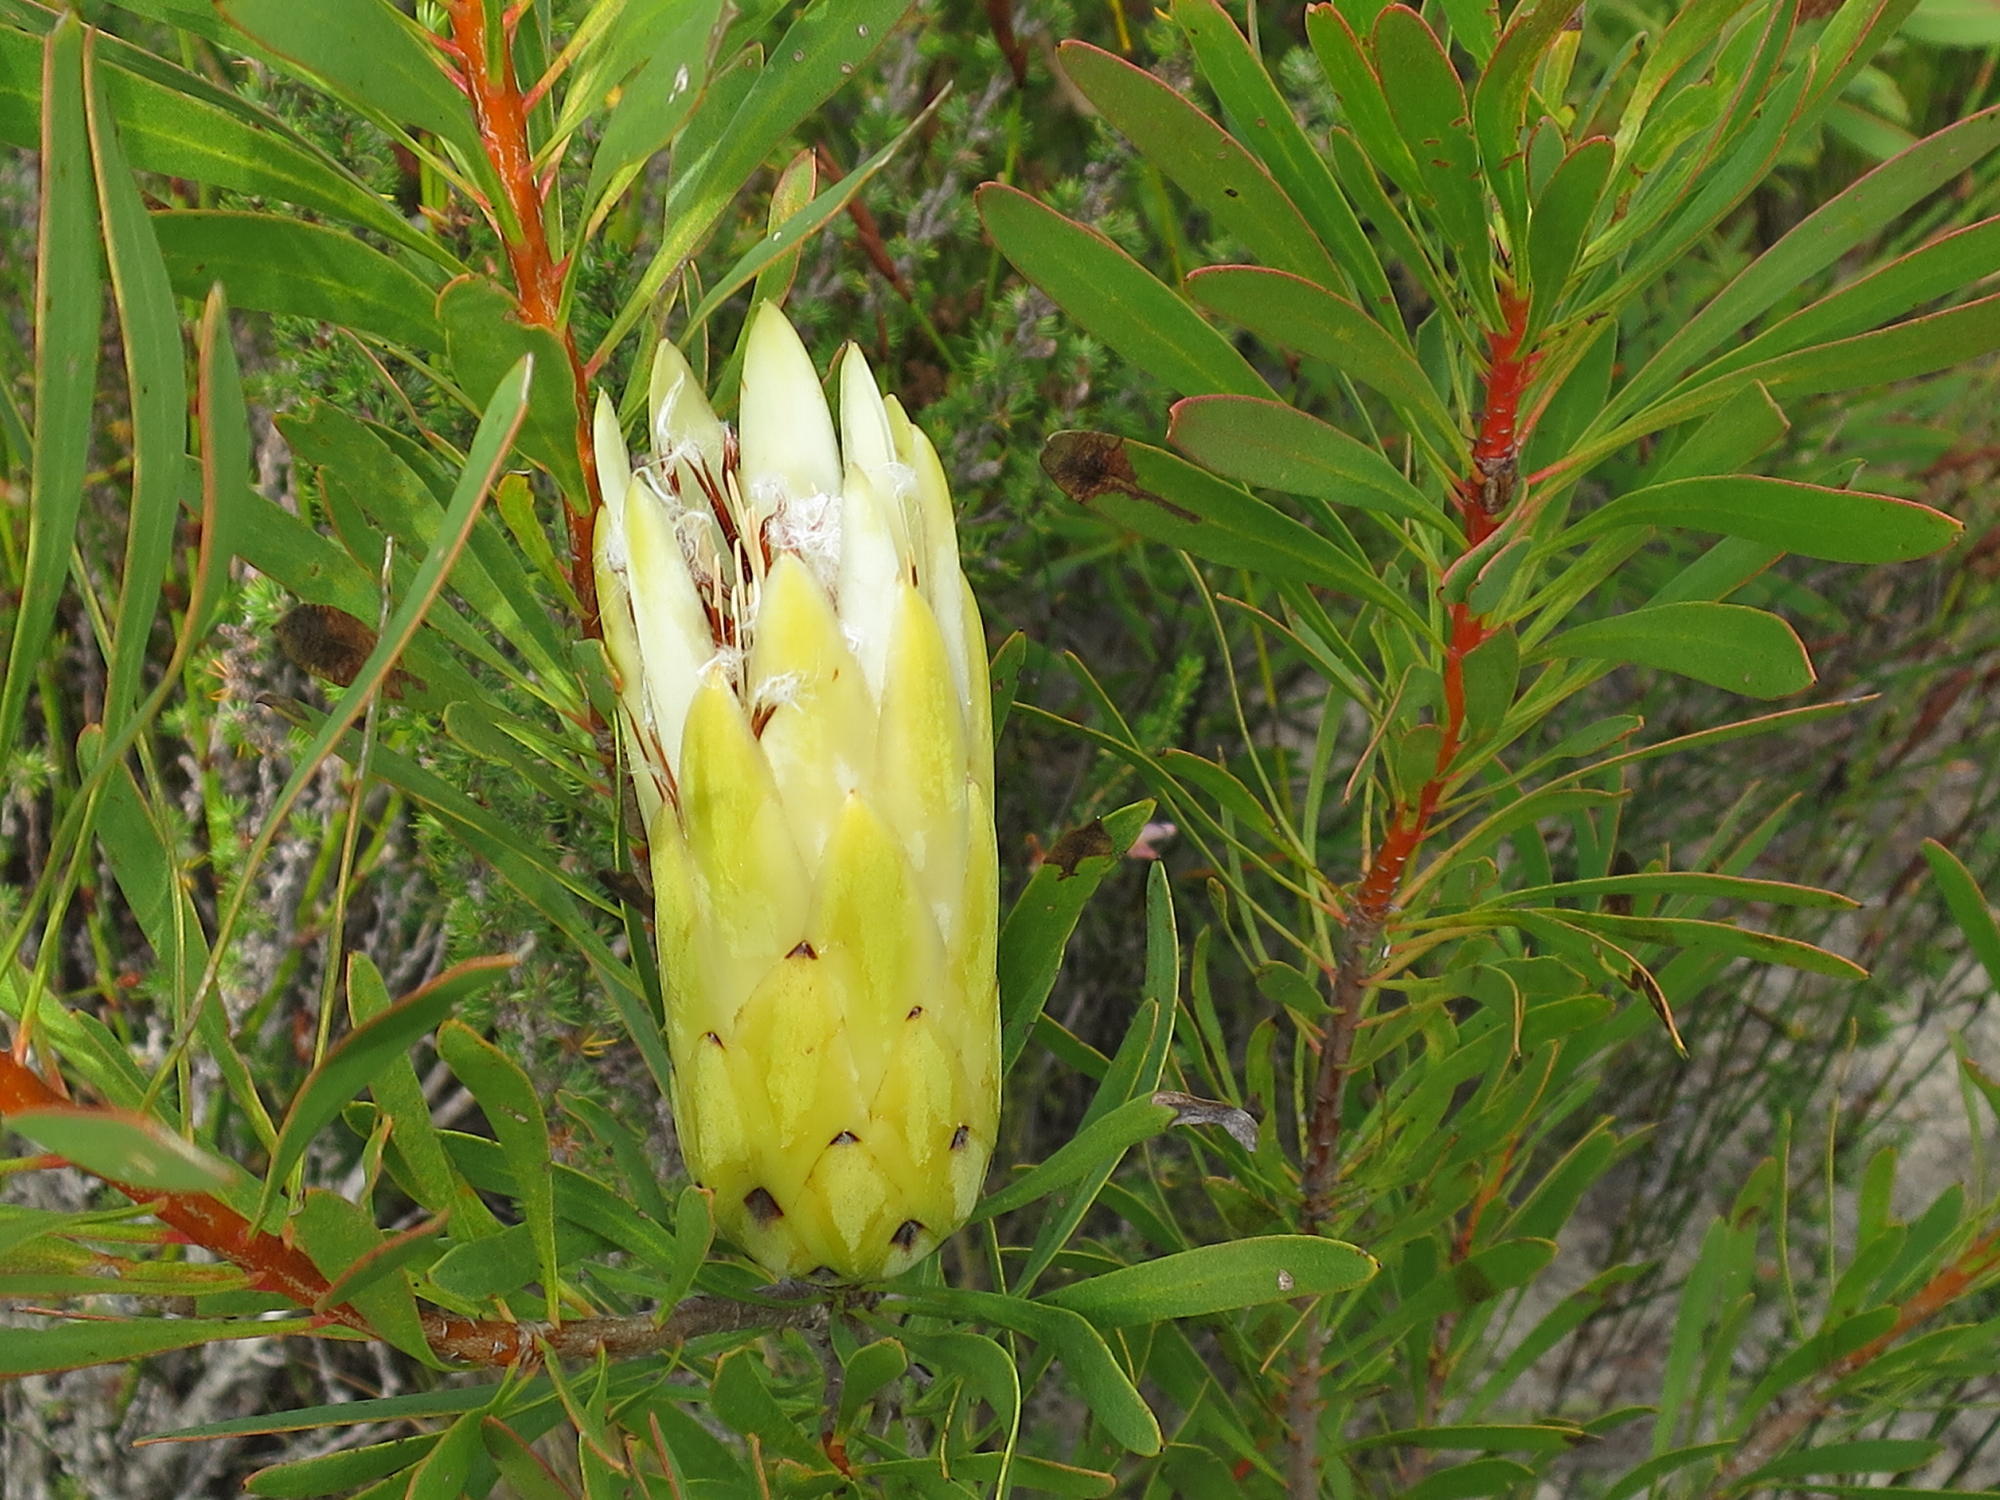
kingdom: Plantae
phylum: Tracheophyta
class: Magnoliopsida
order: Proteales
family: Proteaceae
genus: Protea
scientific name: Protea repens
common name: Sugarbush
